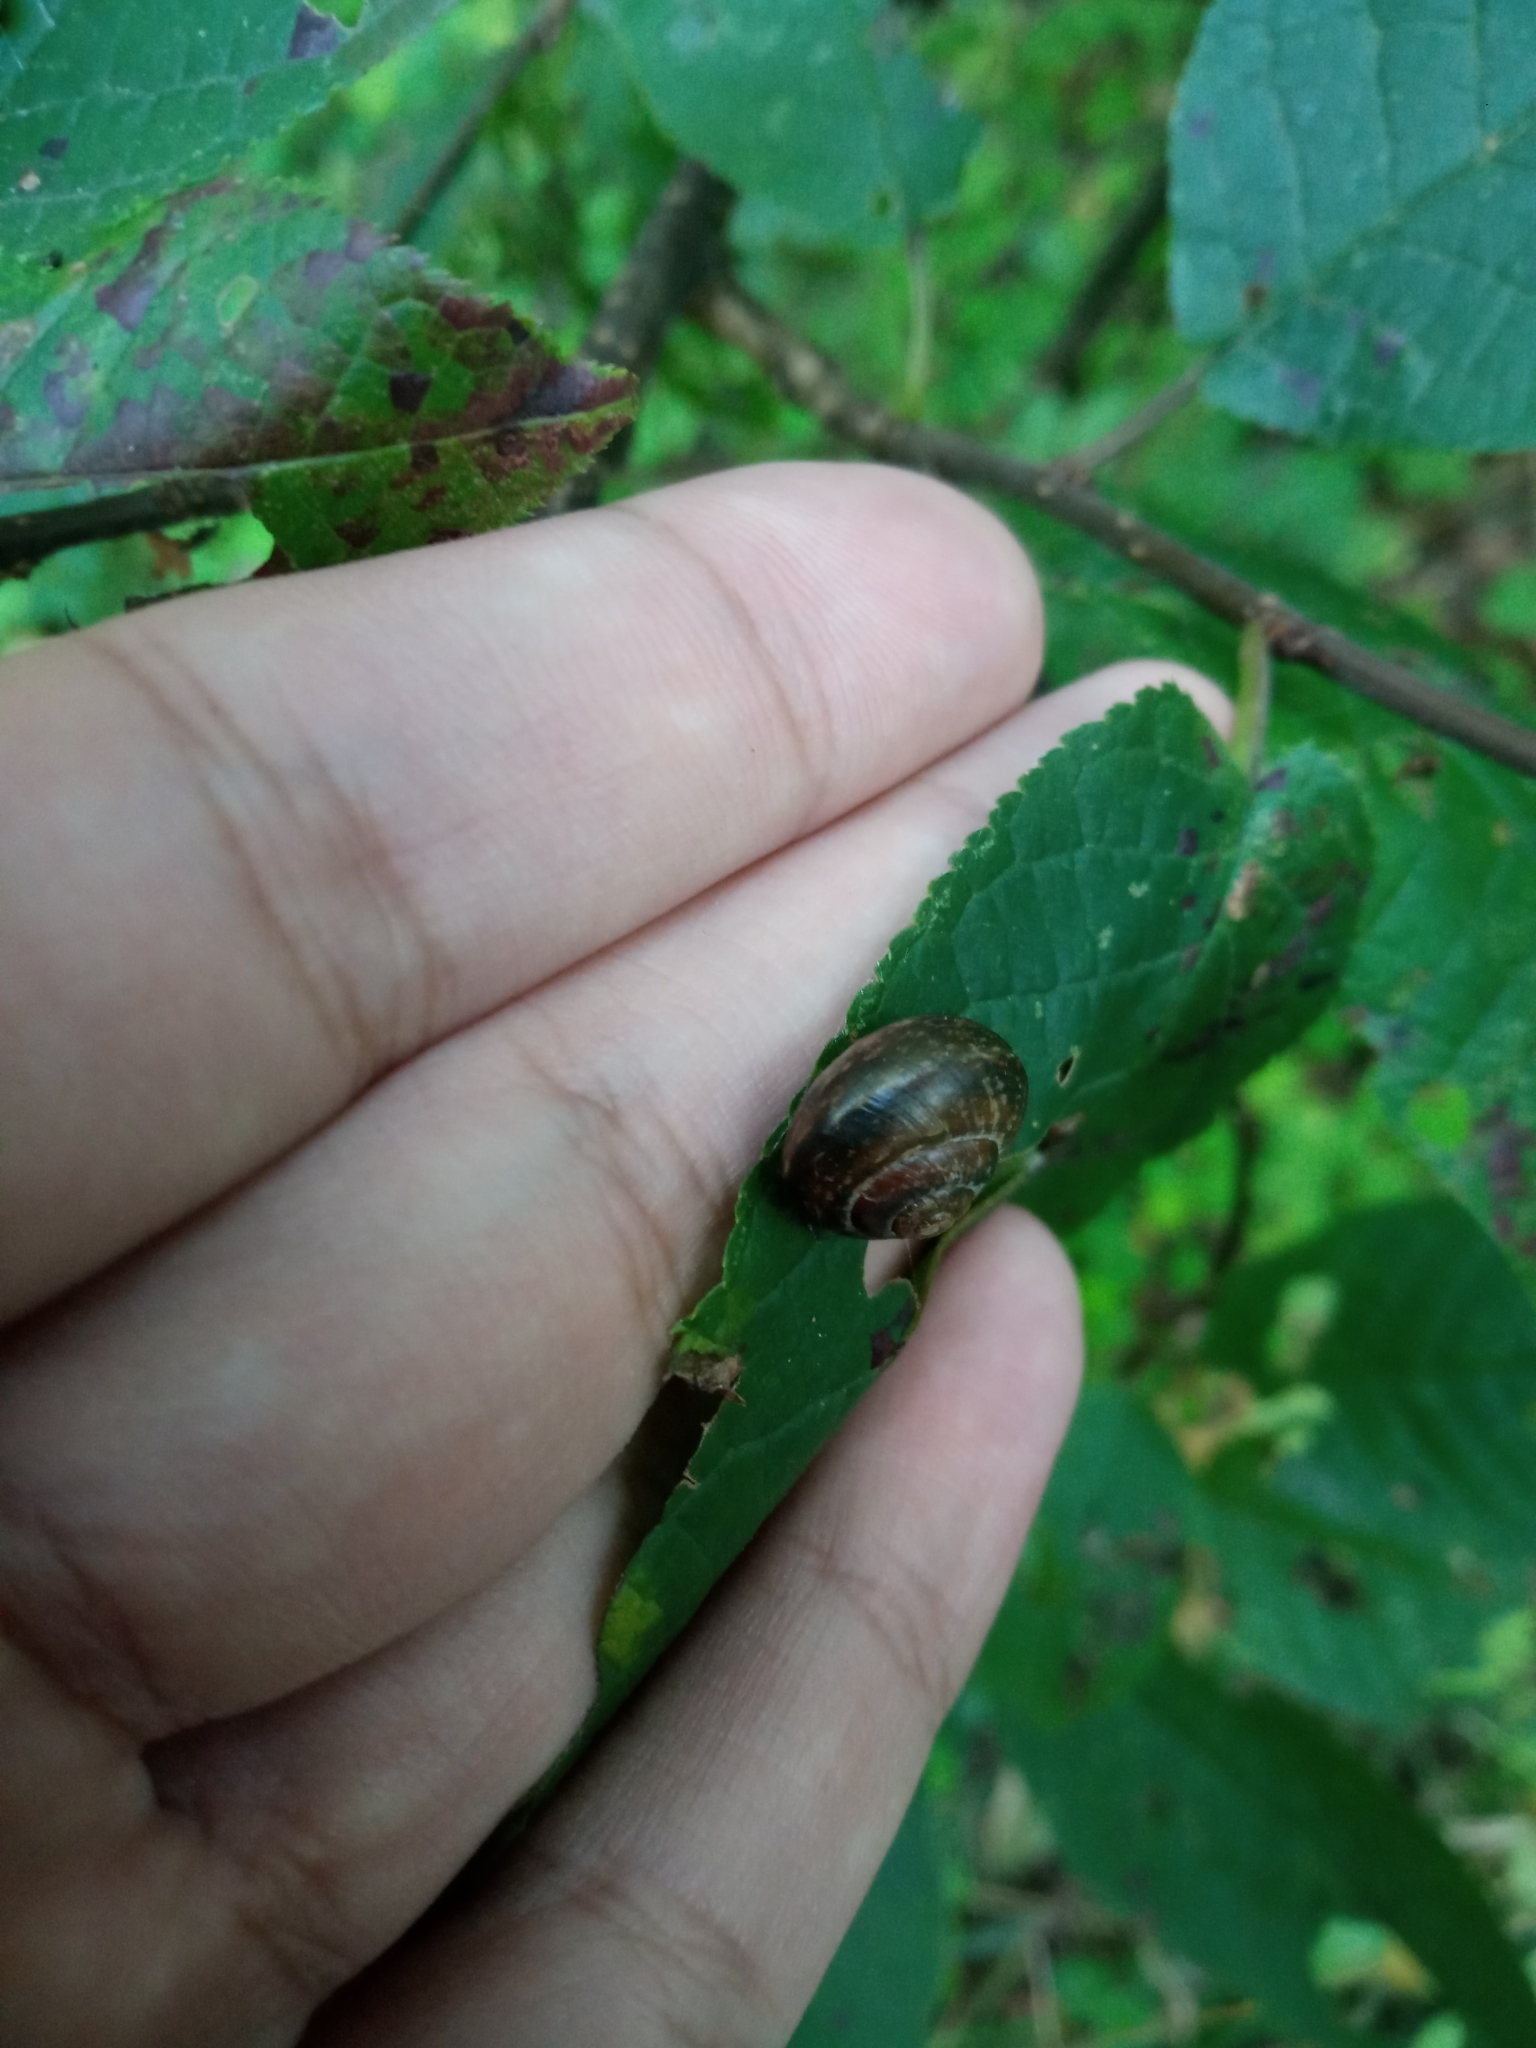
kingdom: Animalia
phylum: Mollusca
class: Gastropoda
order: Stylommatophora
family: Helicidae
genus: Arianta
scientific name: Arianta arbustorum
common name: Copse snail
